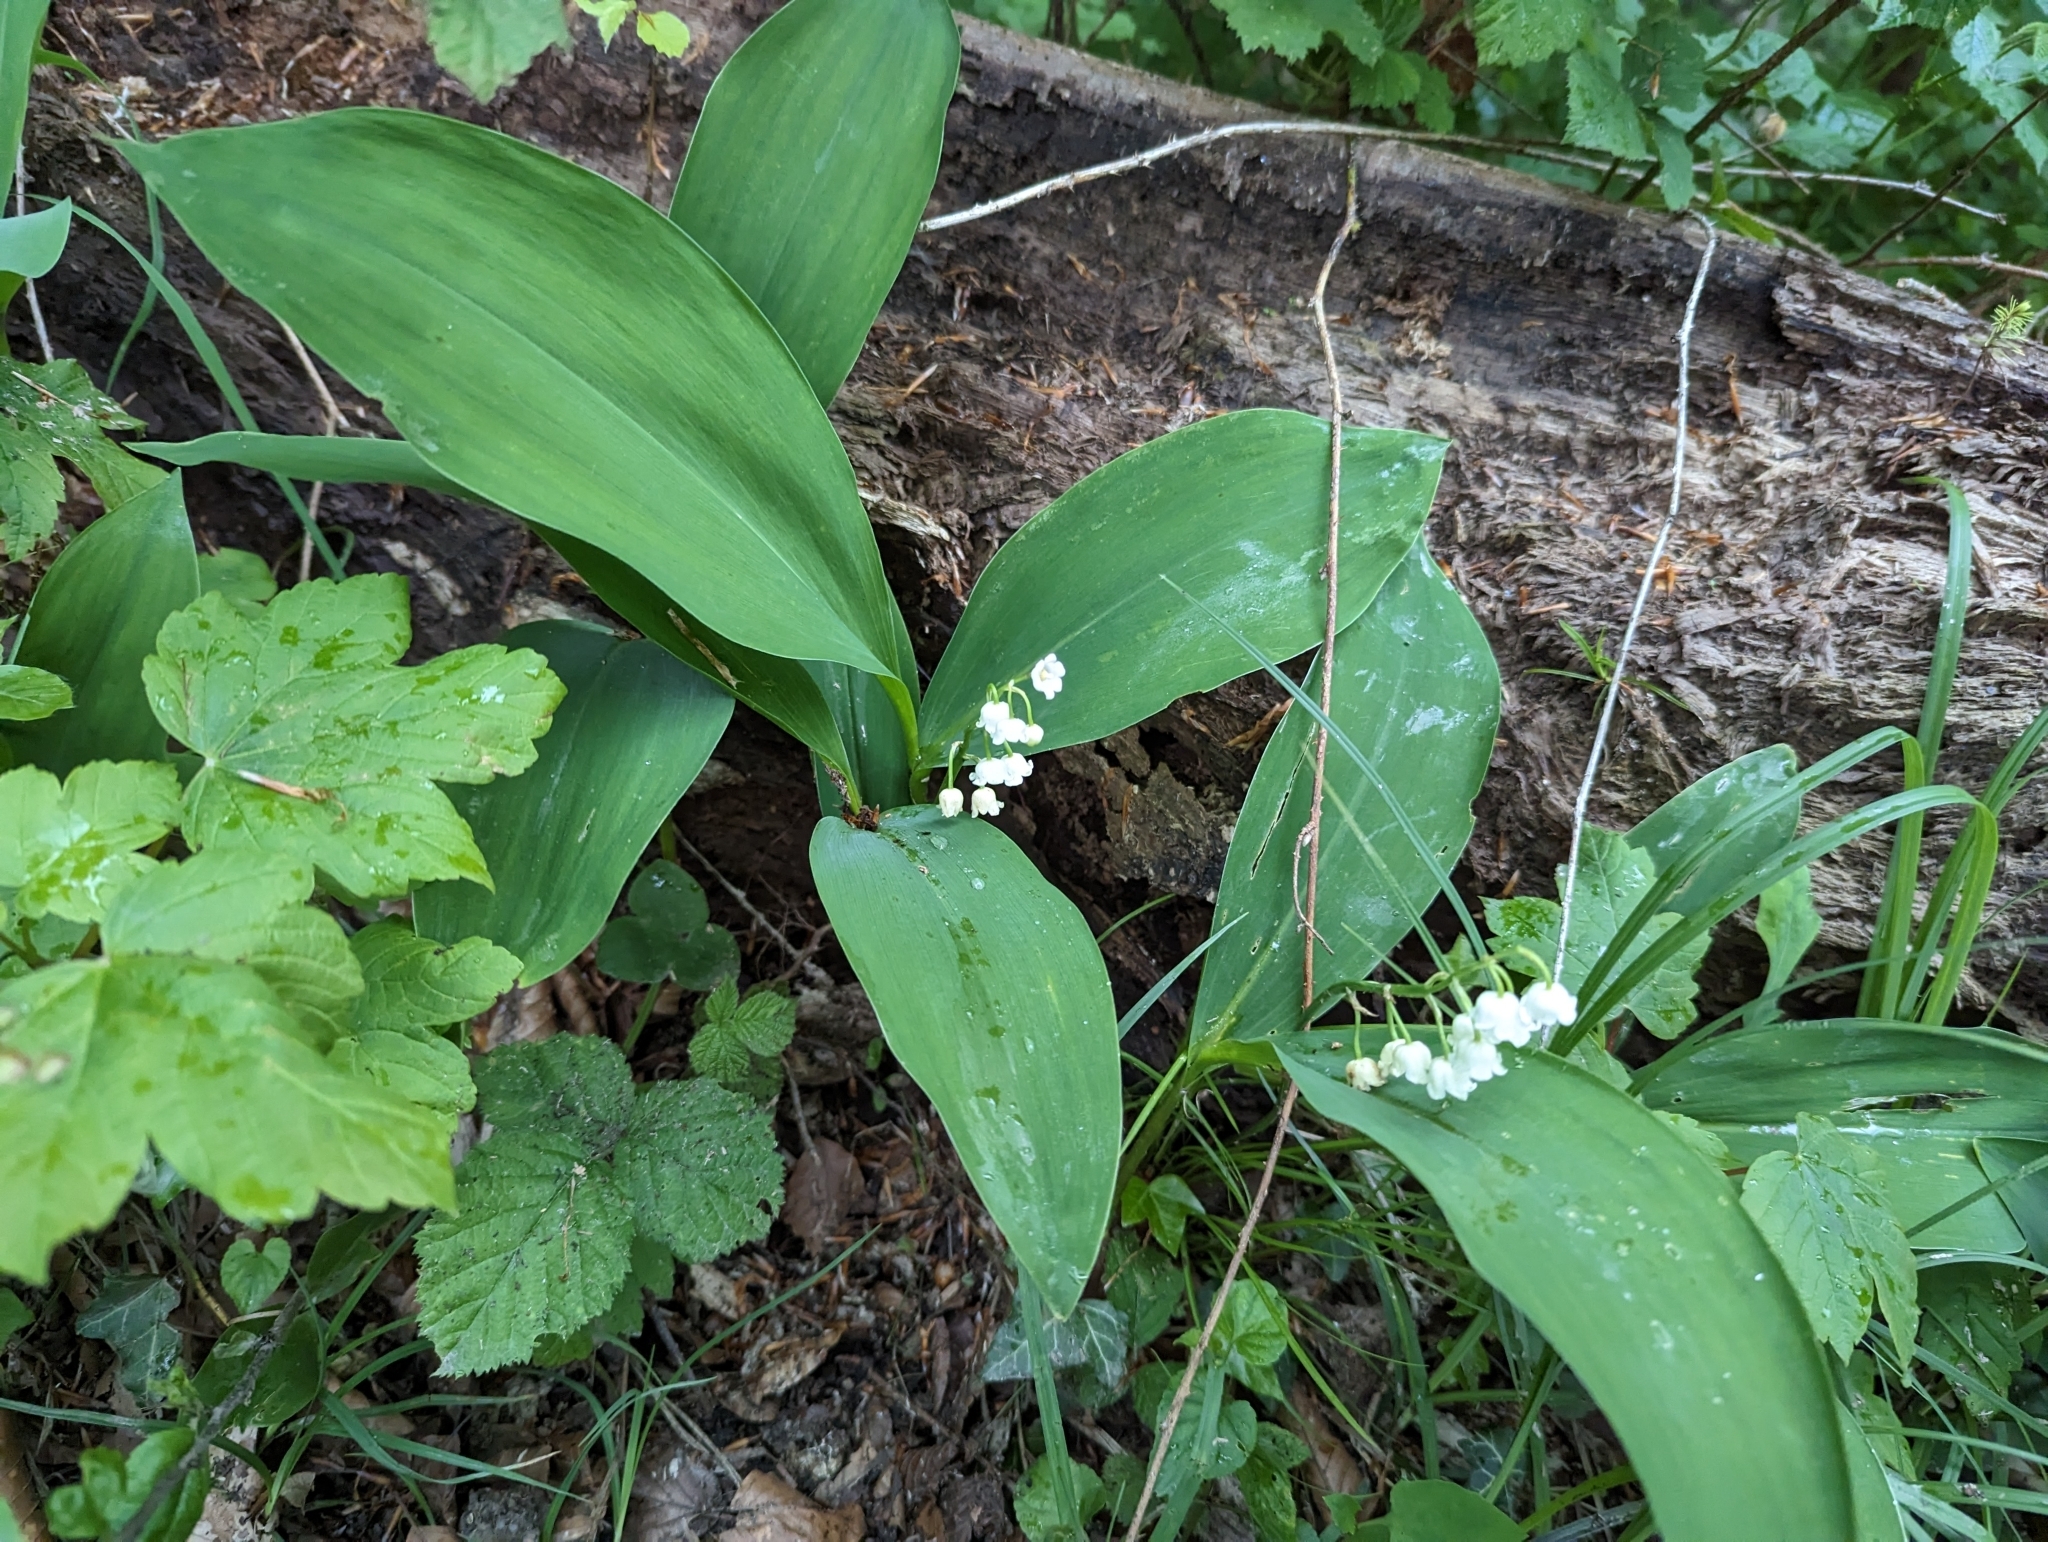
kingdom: Plantae
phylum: Tracheophyta
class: Liliopsida
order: Asparagales
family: Asparagaceae
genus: Convallaria
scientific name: Convallaria majalis
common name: Lily-of-the-valley
